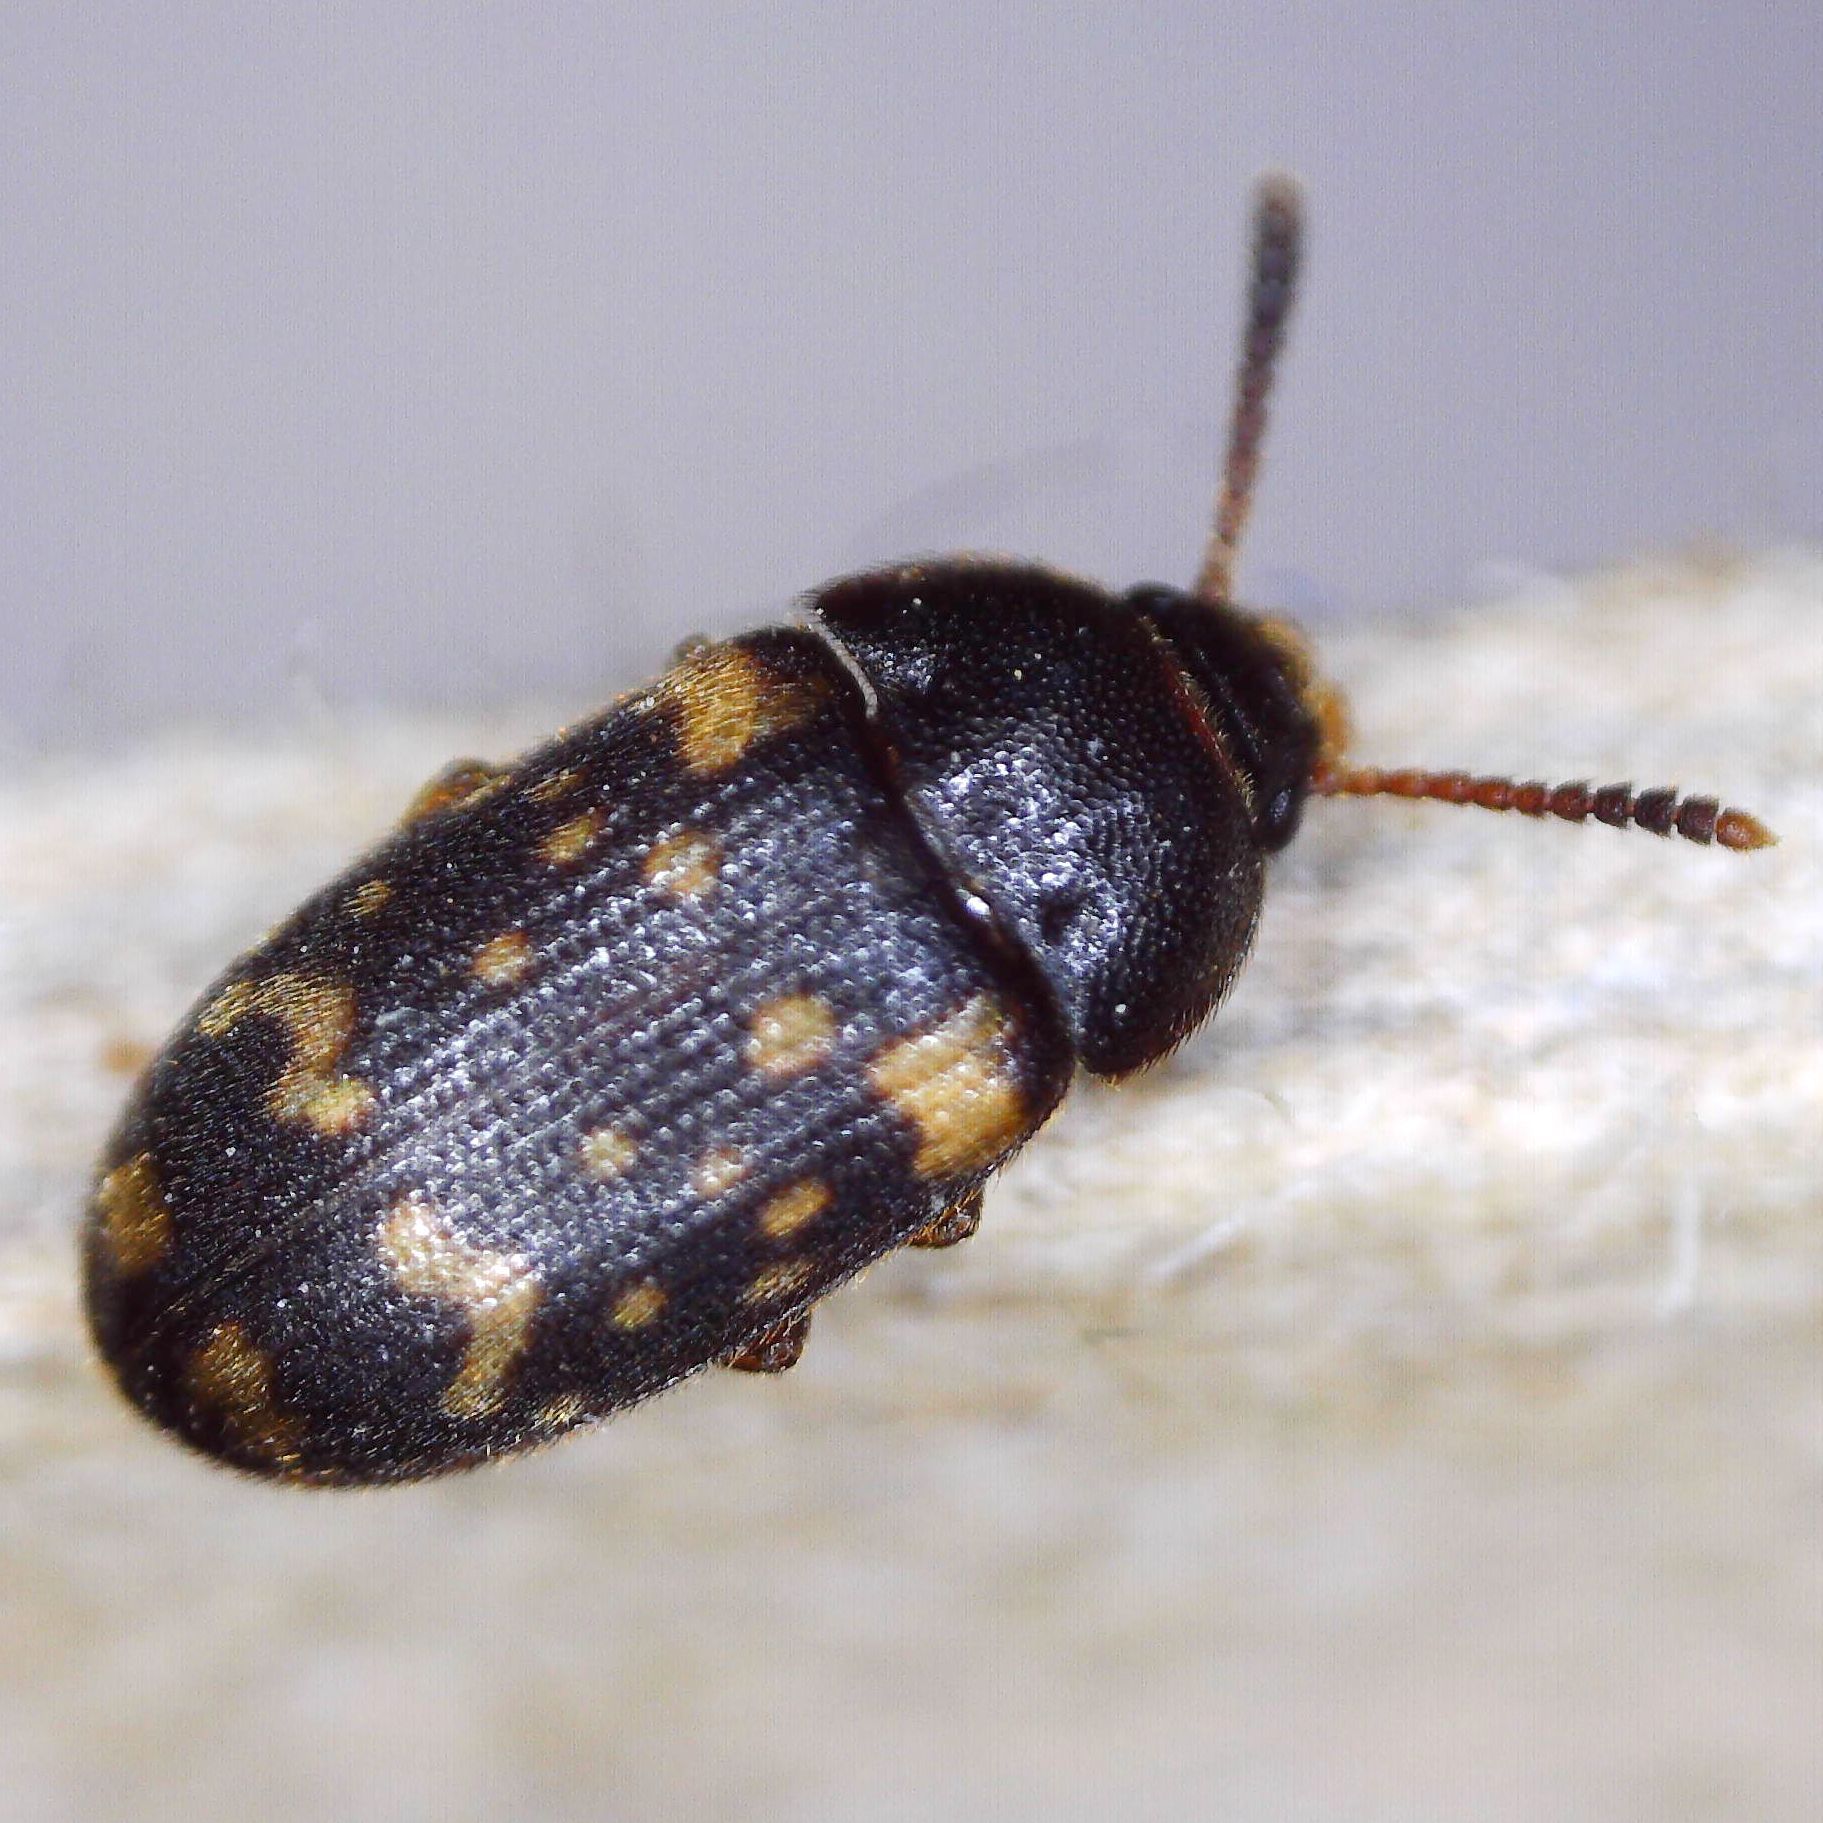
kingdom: Animalia
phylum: Arthropoda
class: Insecta
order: Coleoptera
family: Mycetophagidae
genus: Mycetophagus
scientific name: Mycetophagus atomarius
